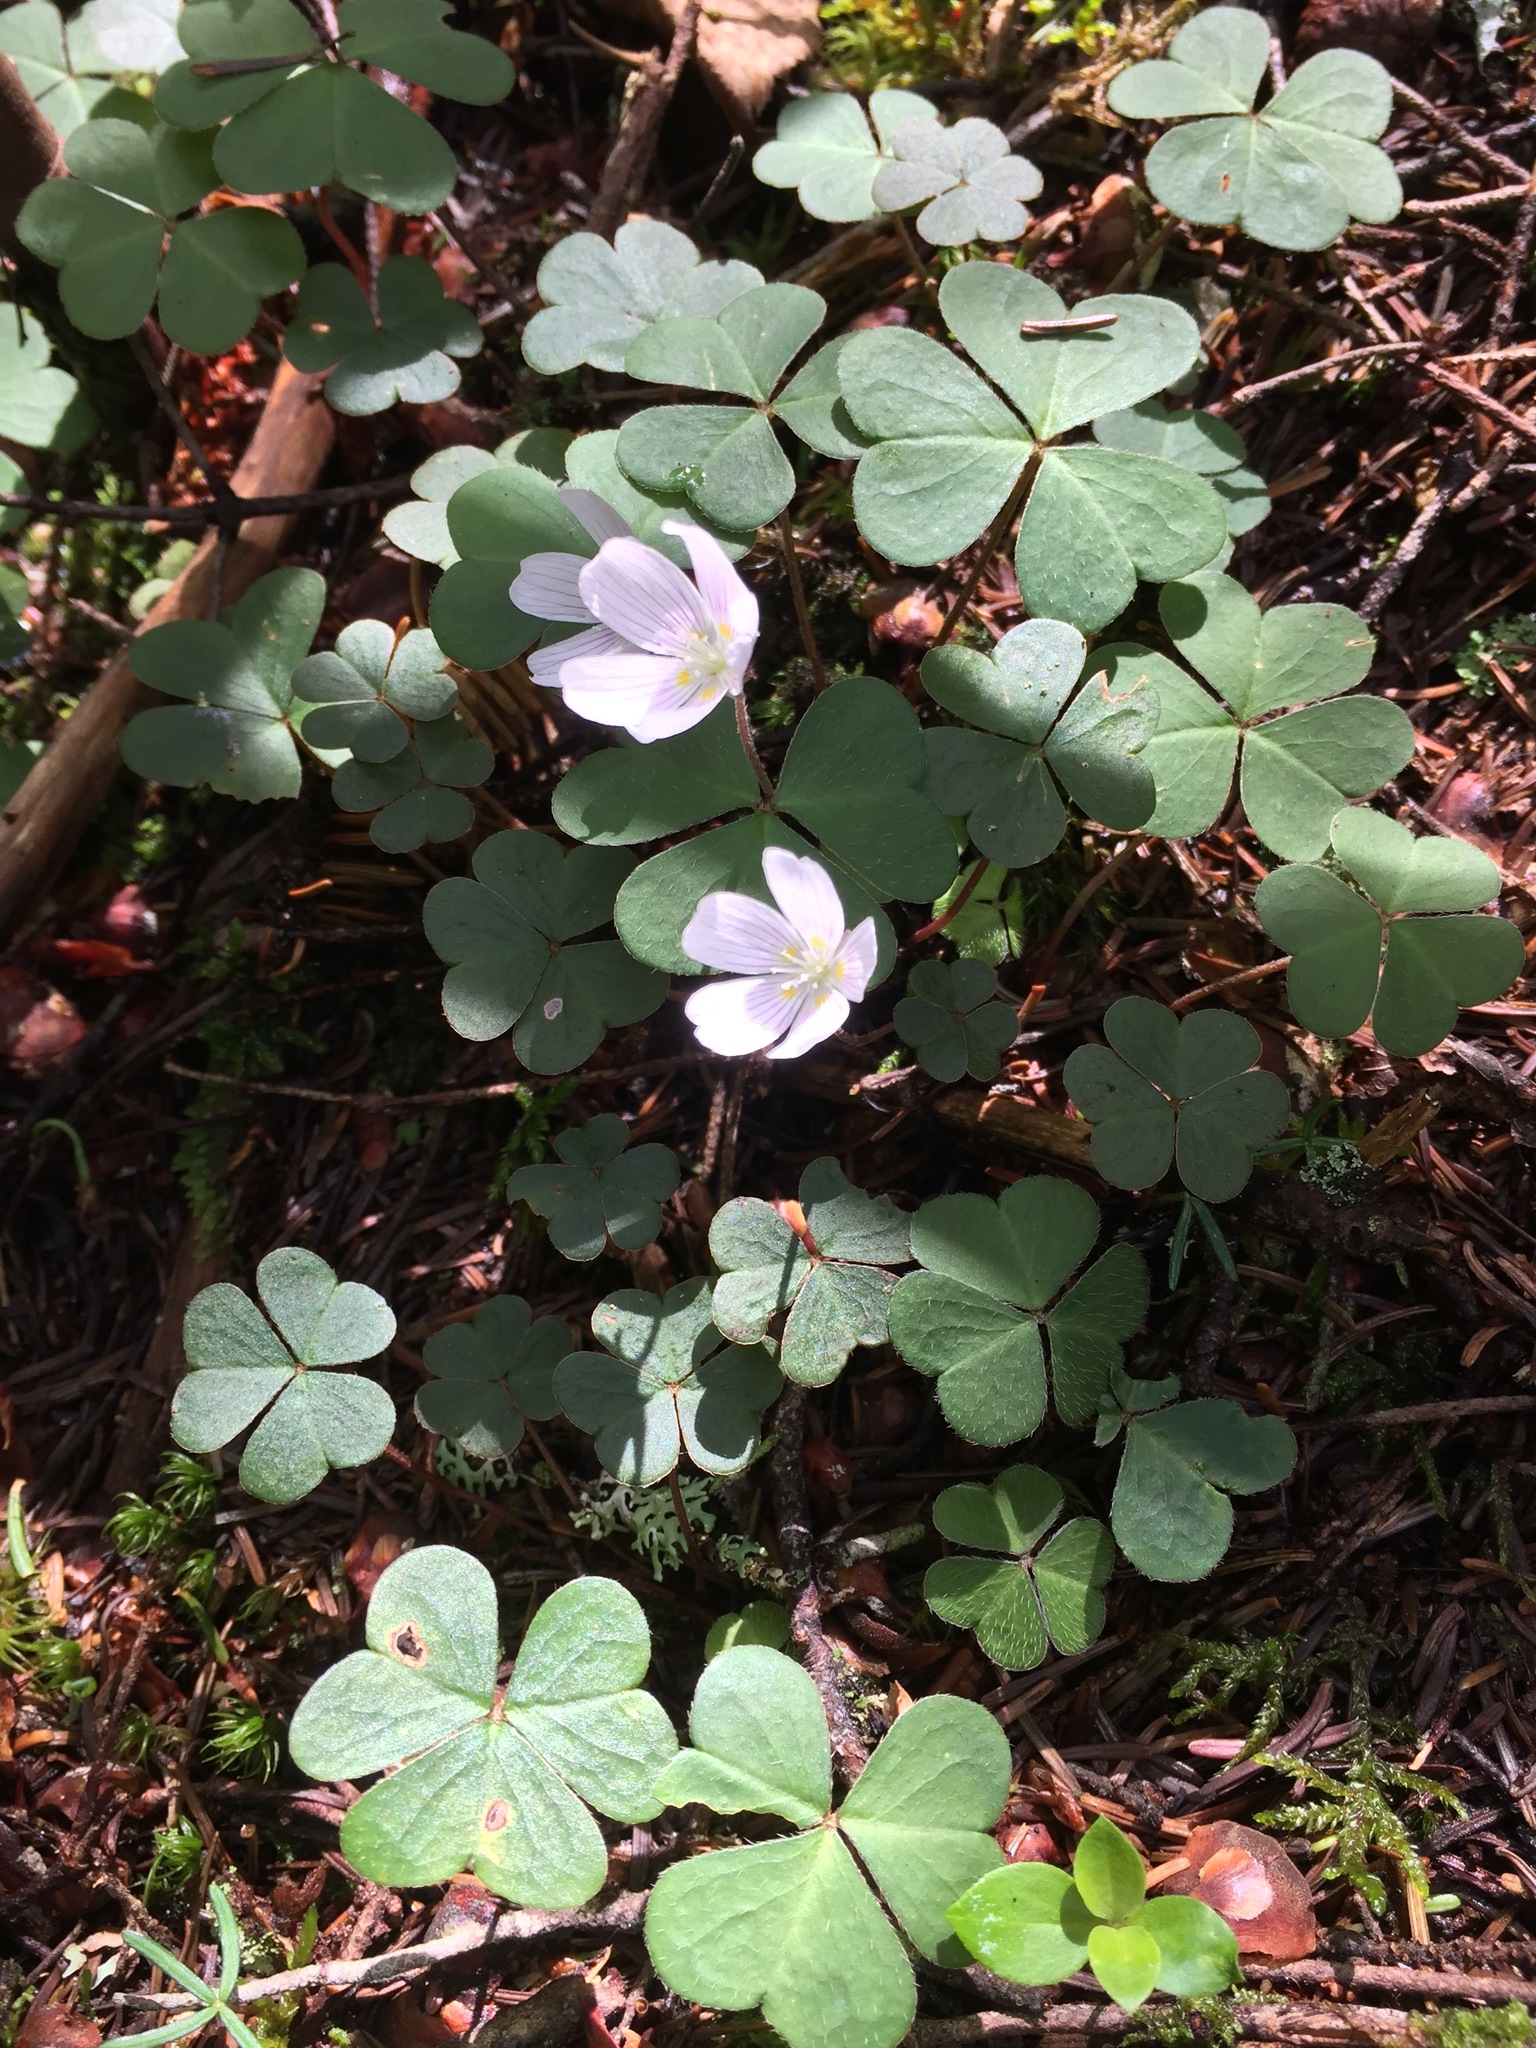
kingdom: Plantae
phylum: Tracheophyta
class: Magnoliopsida
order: Oxalidales
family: Oxalidaceae
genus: Oxalis
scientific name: Oxalis montana
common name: American wood-sorrel
